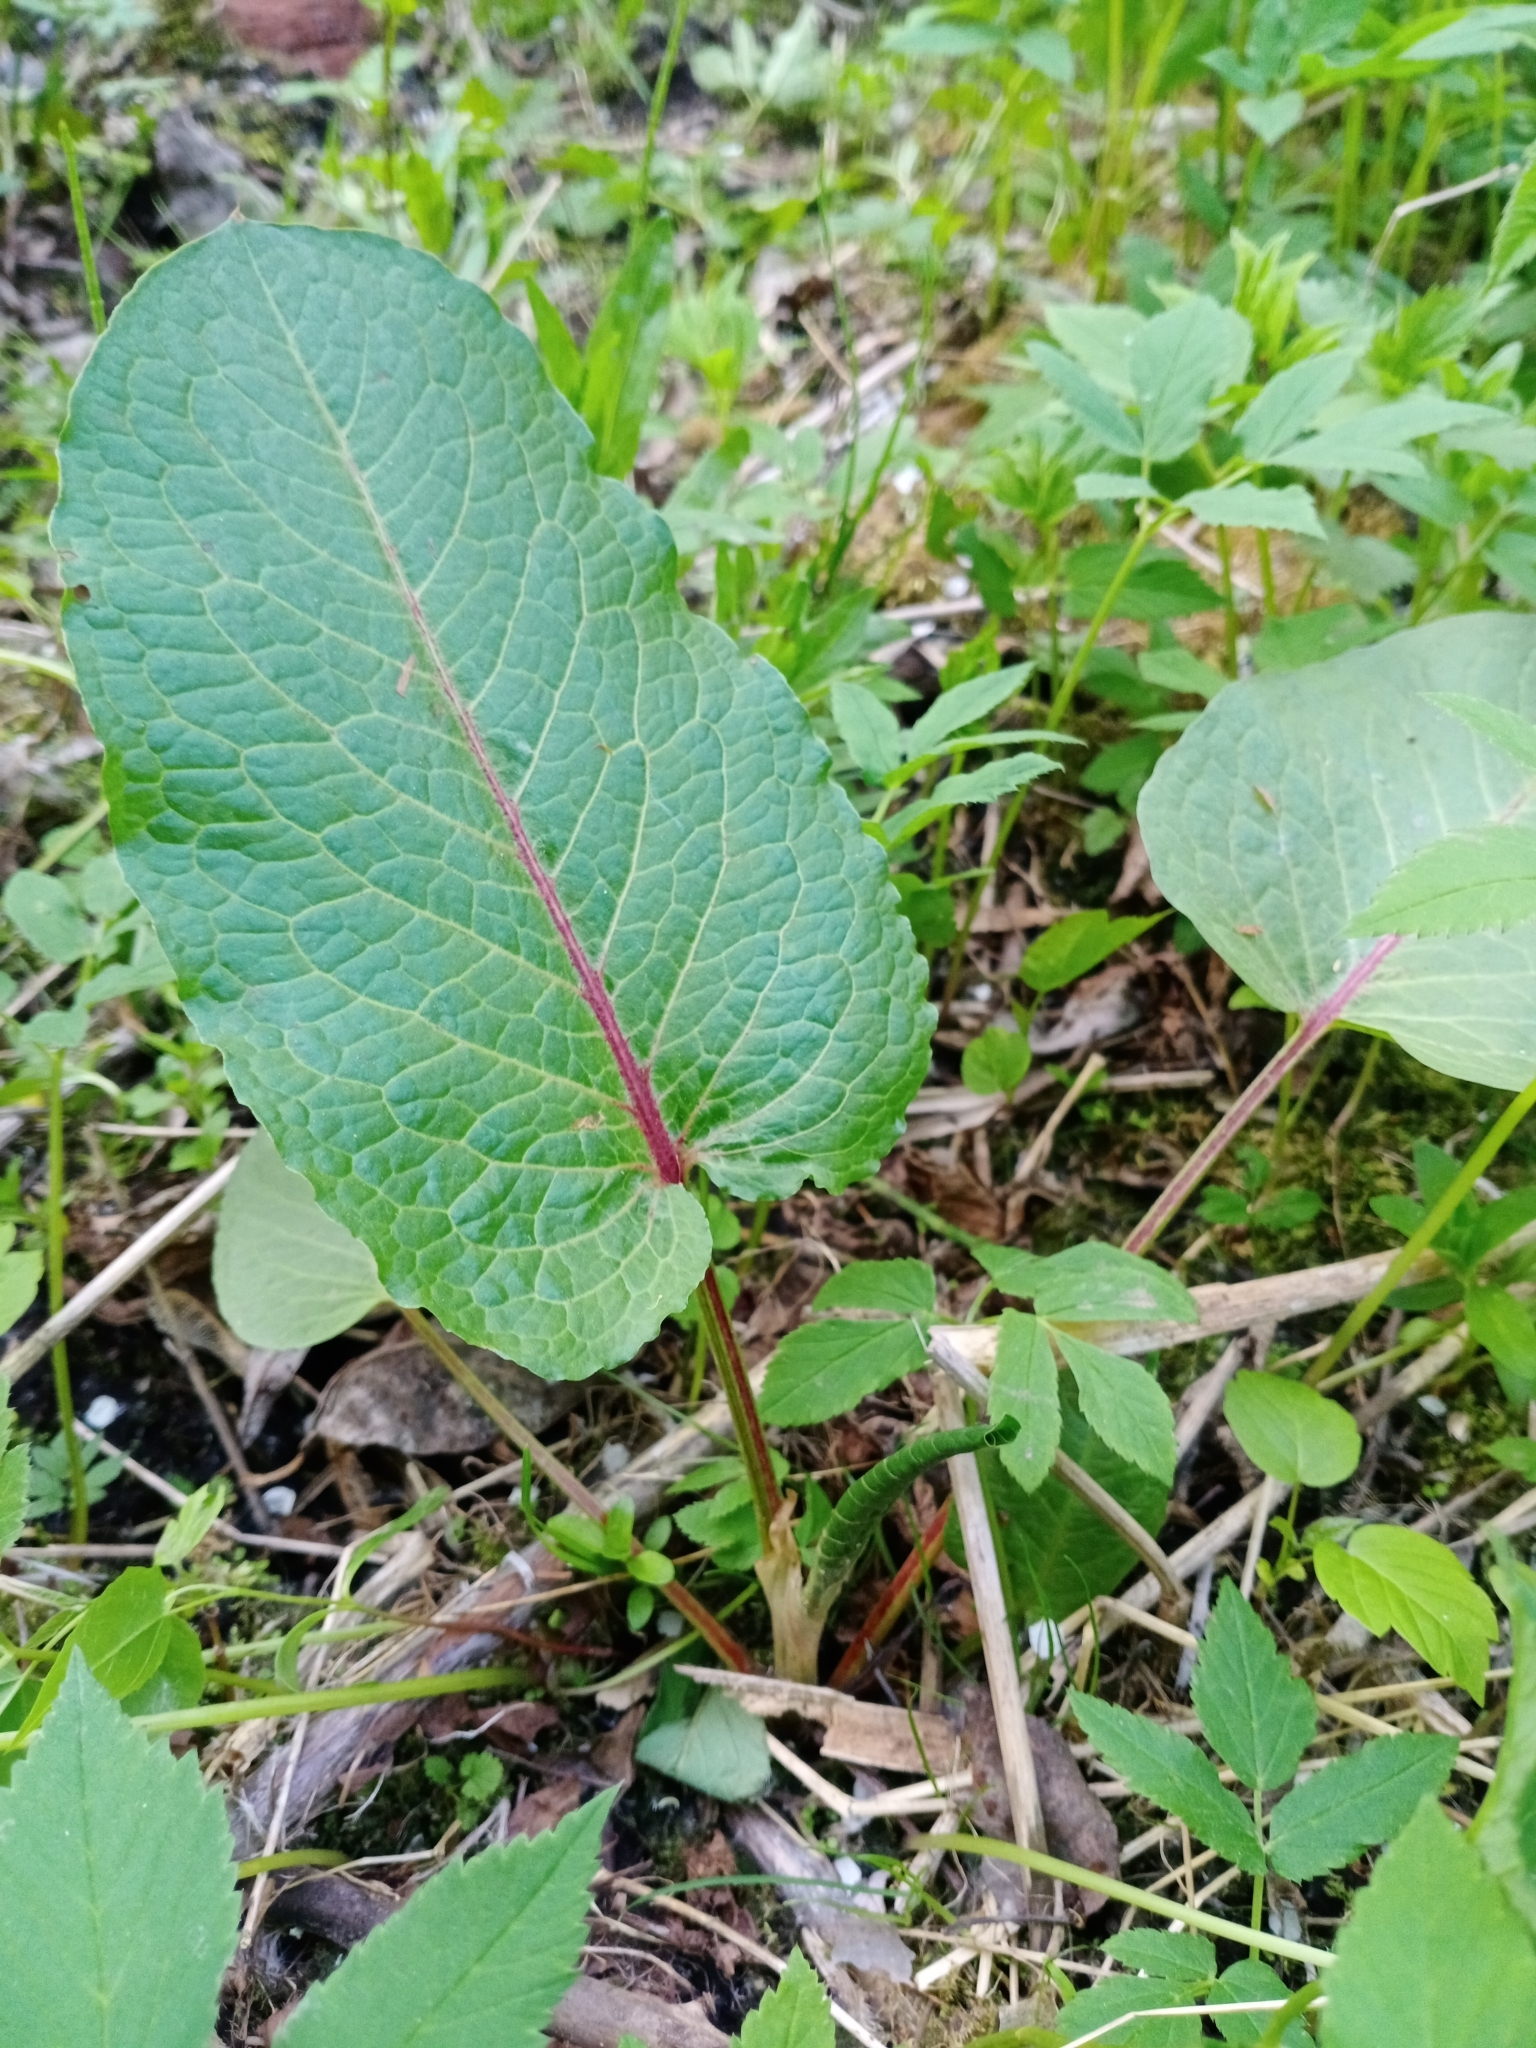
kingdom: Plantae
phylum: Tracheophyta
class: Magnoliopsida
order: Caryophyllales
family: Polygonaceae
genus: Rumex
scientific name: Rumex obtusifolius
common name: Bitter dock
